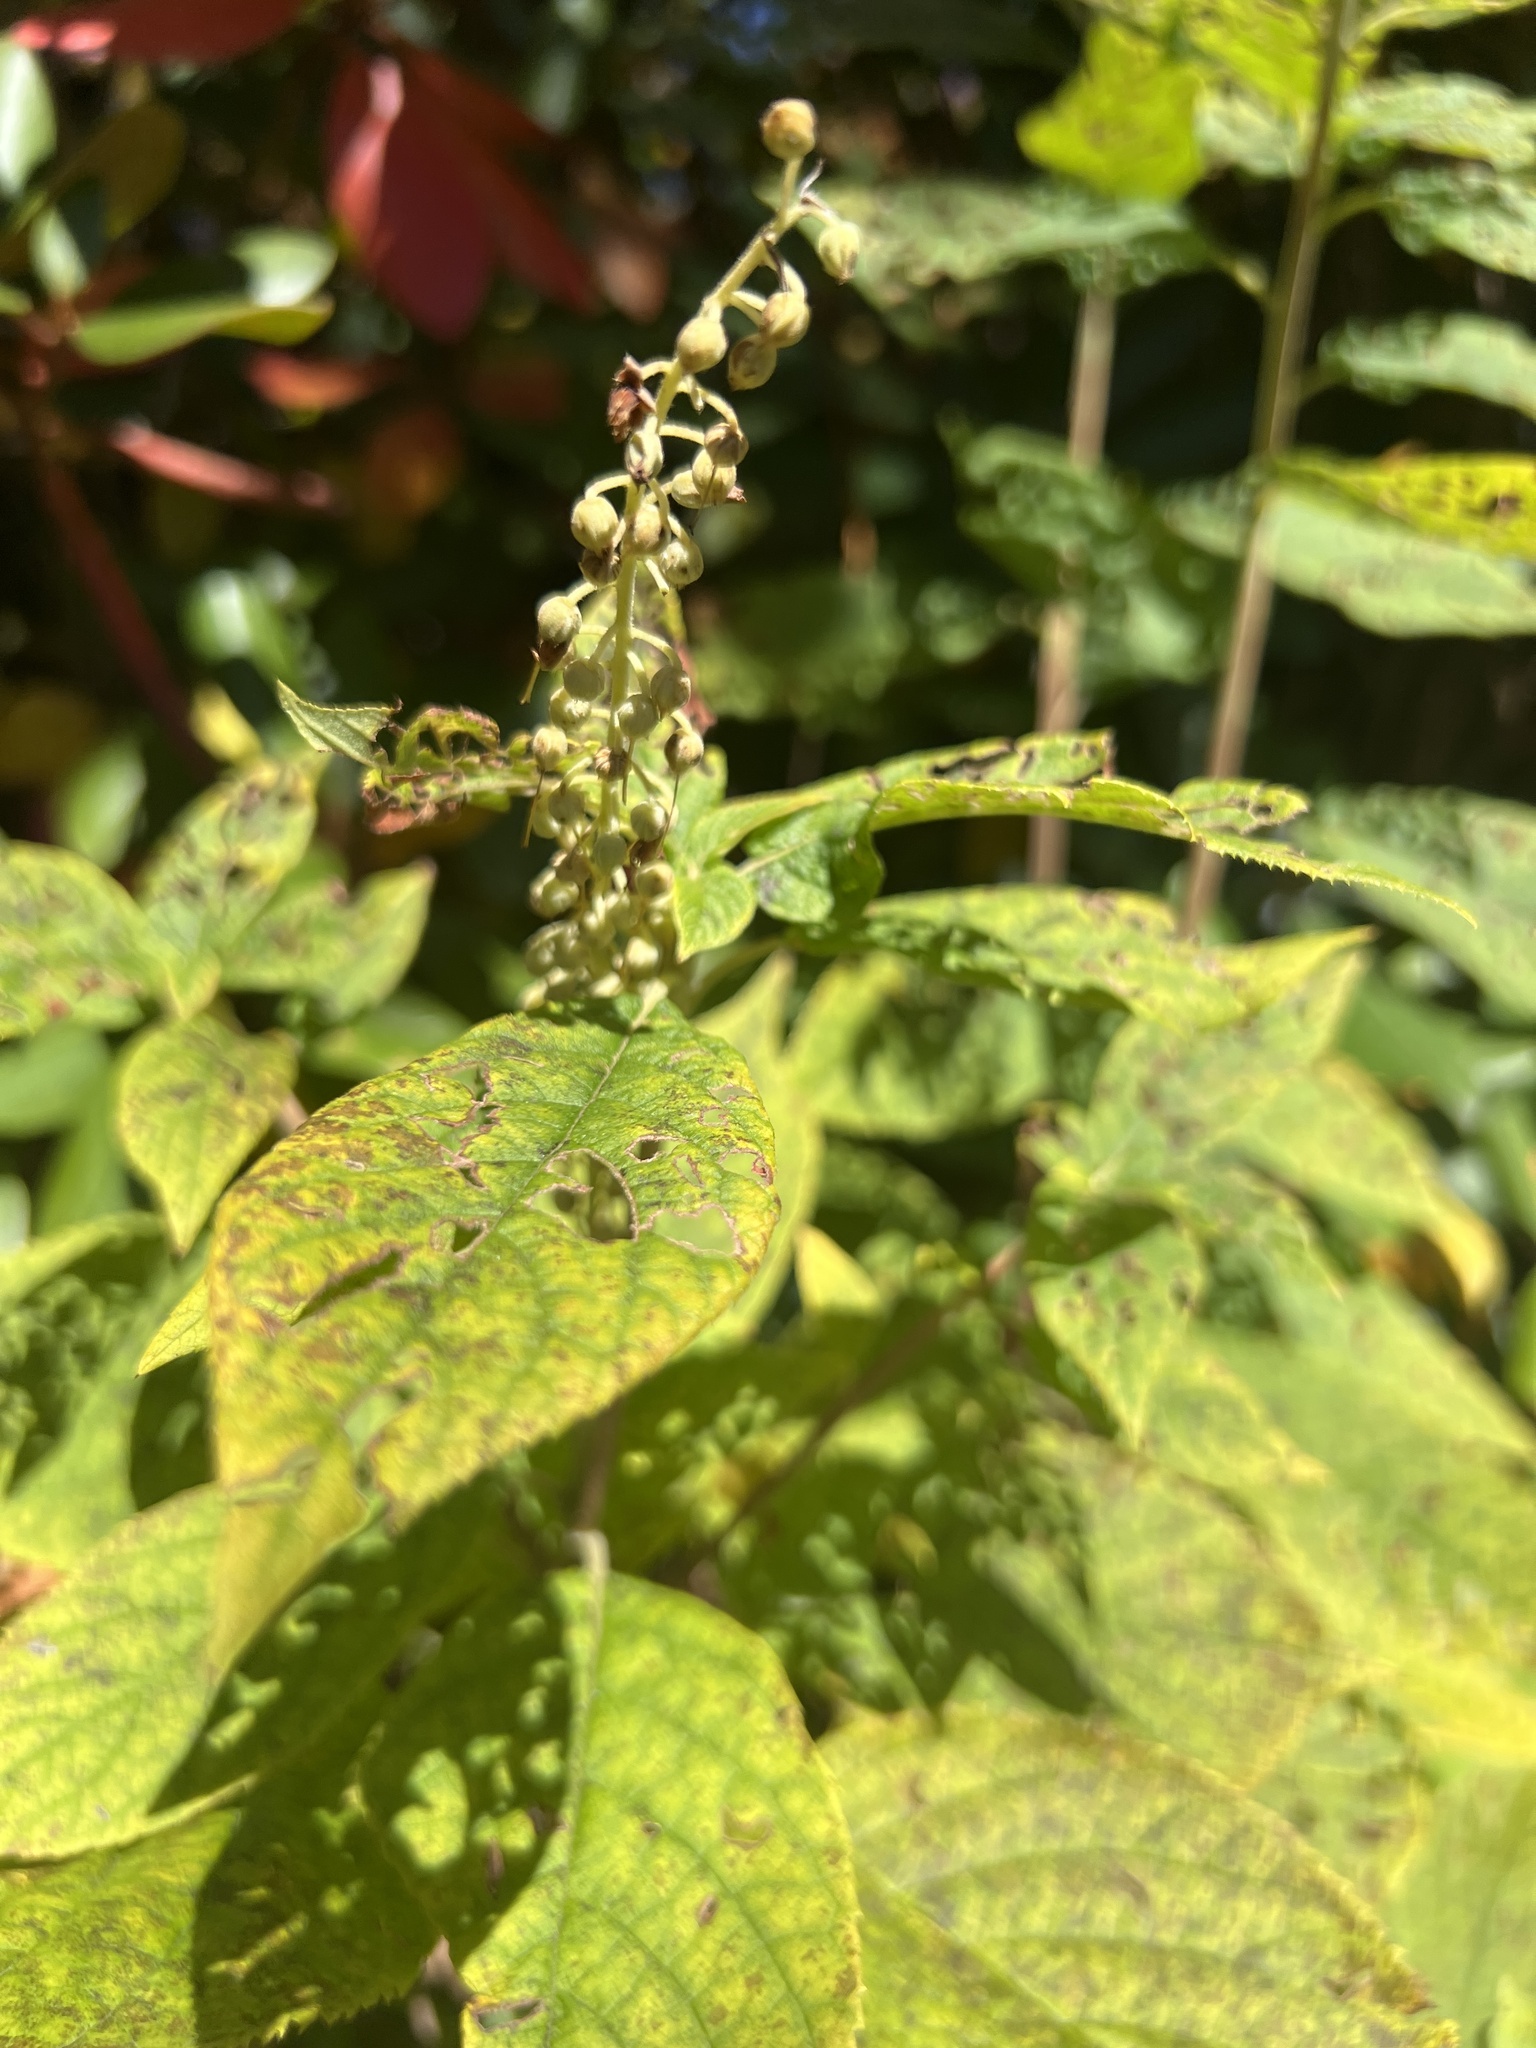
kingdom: Plantae
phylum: Tracheophyta
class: Magnoliopsida
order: Ericales
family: Clethraceae
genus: Clethra
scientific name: Clethra acuminata
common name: Mountain sweet pepperbush
